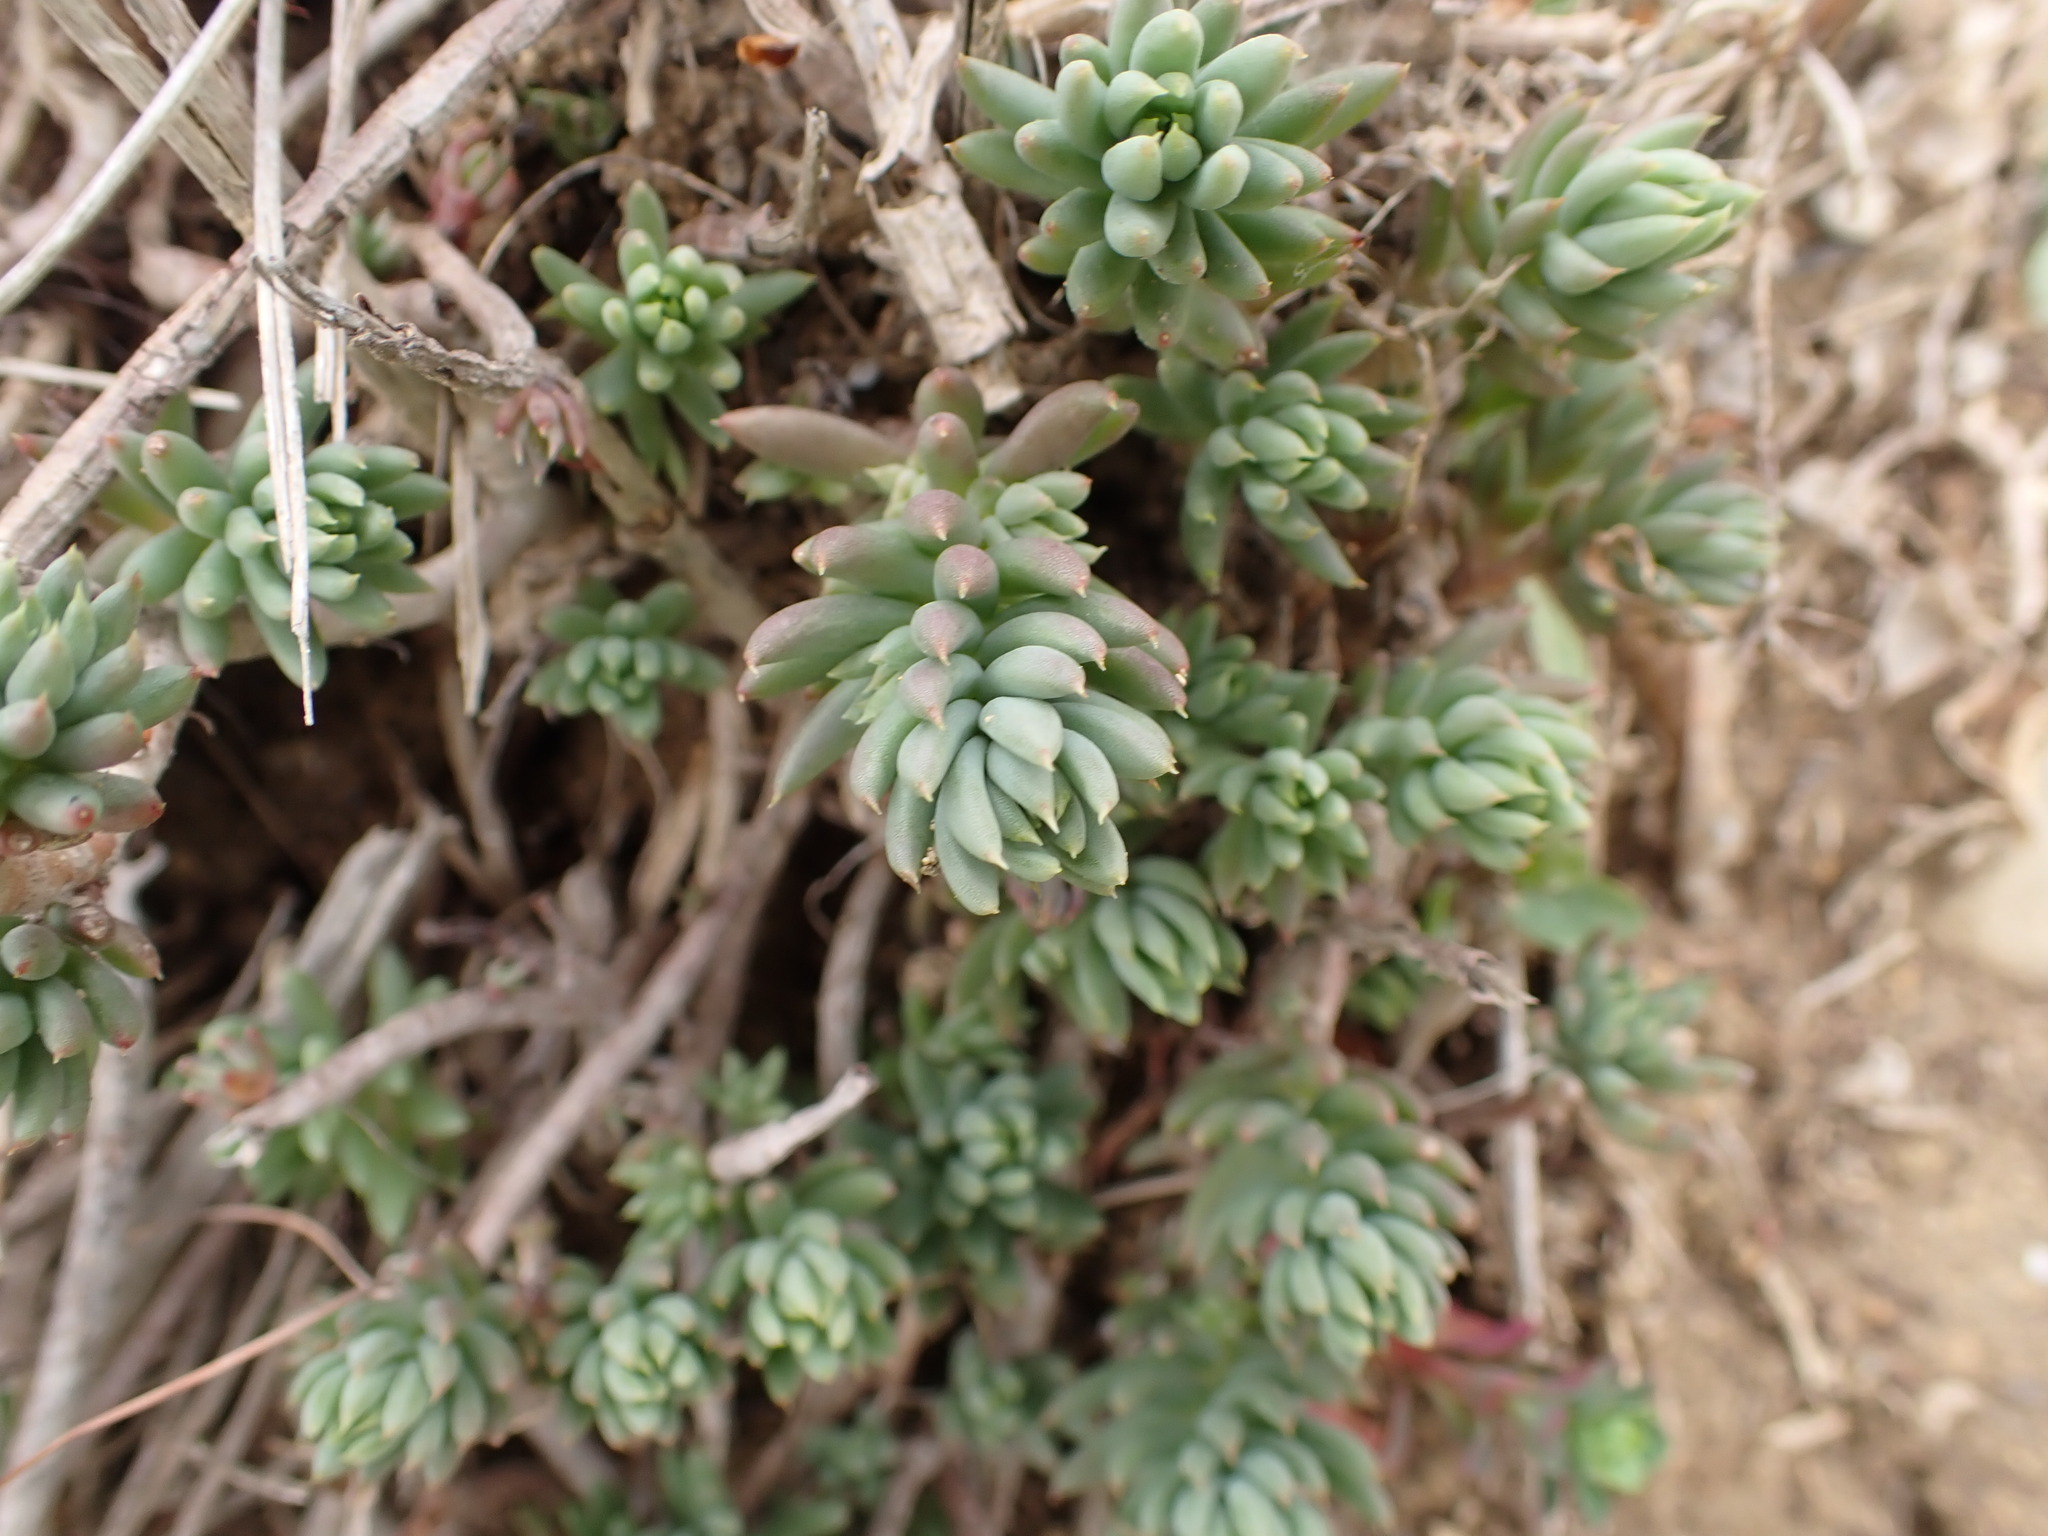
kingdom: Plantae
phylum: Tracheophyta
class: Magnoliopsida
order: Saxifragales
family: Crassulaceae
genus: Petrosedum
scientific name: Petrosedum sediforme
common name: Pale stonecrop
